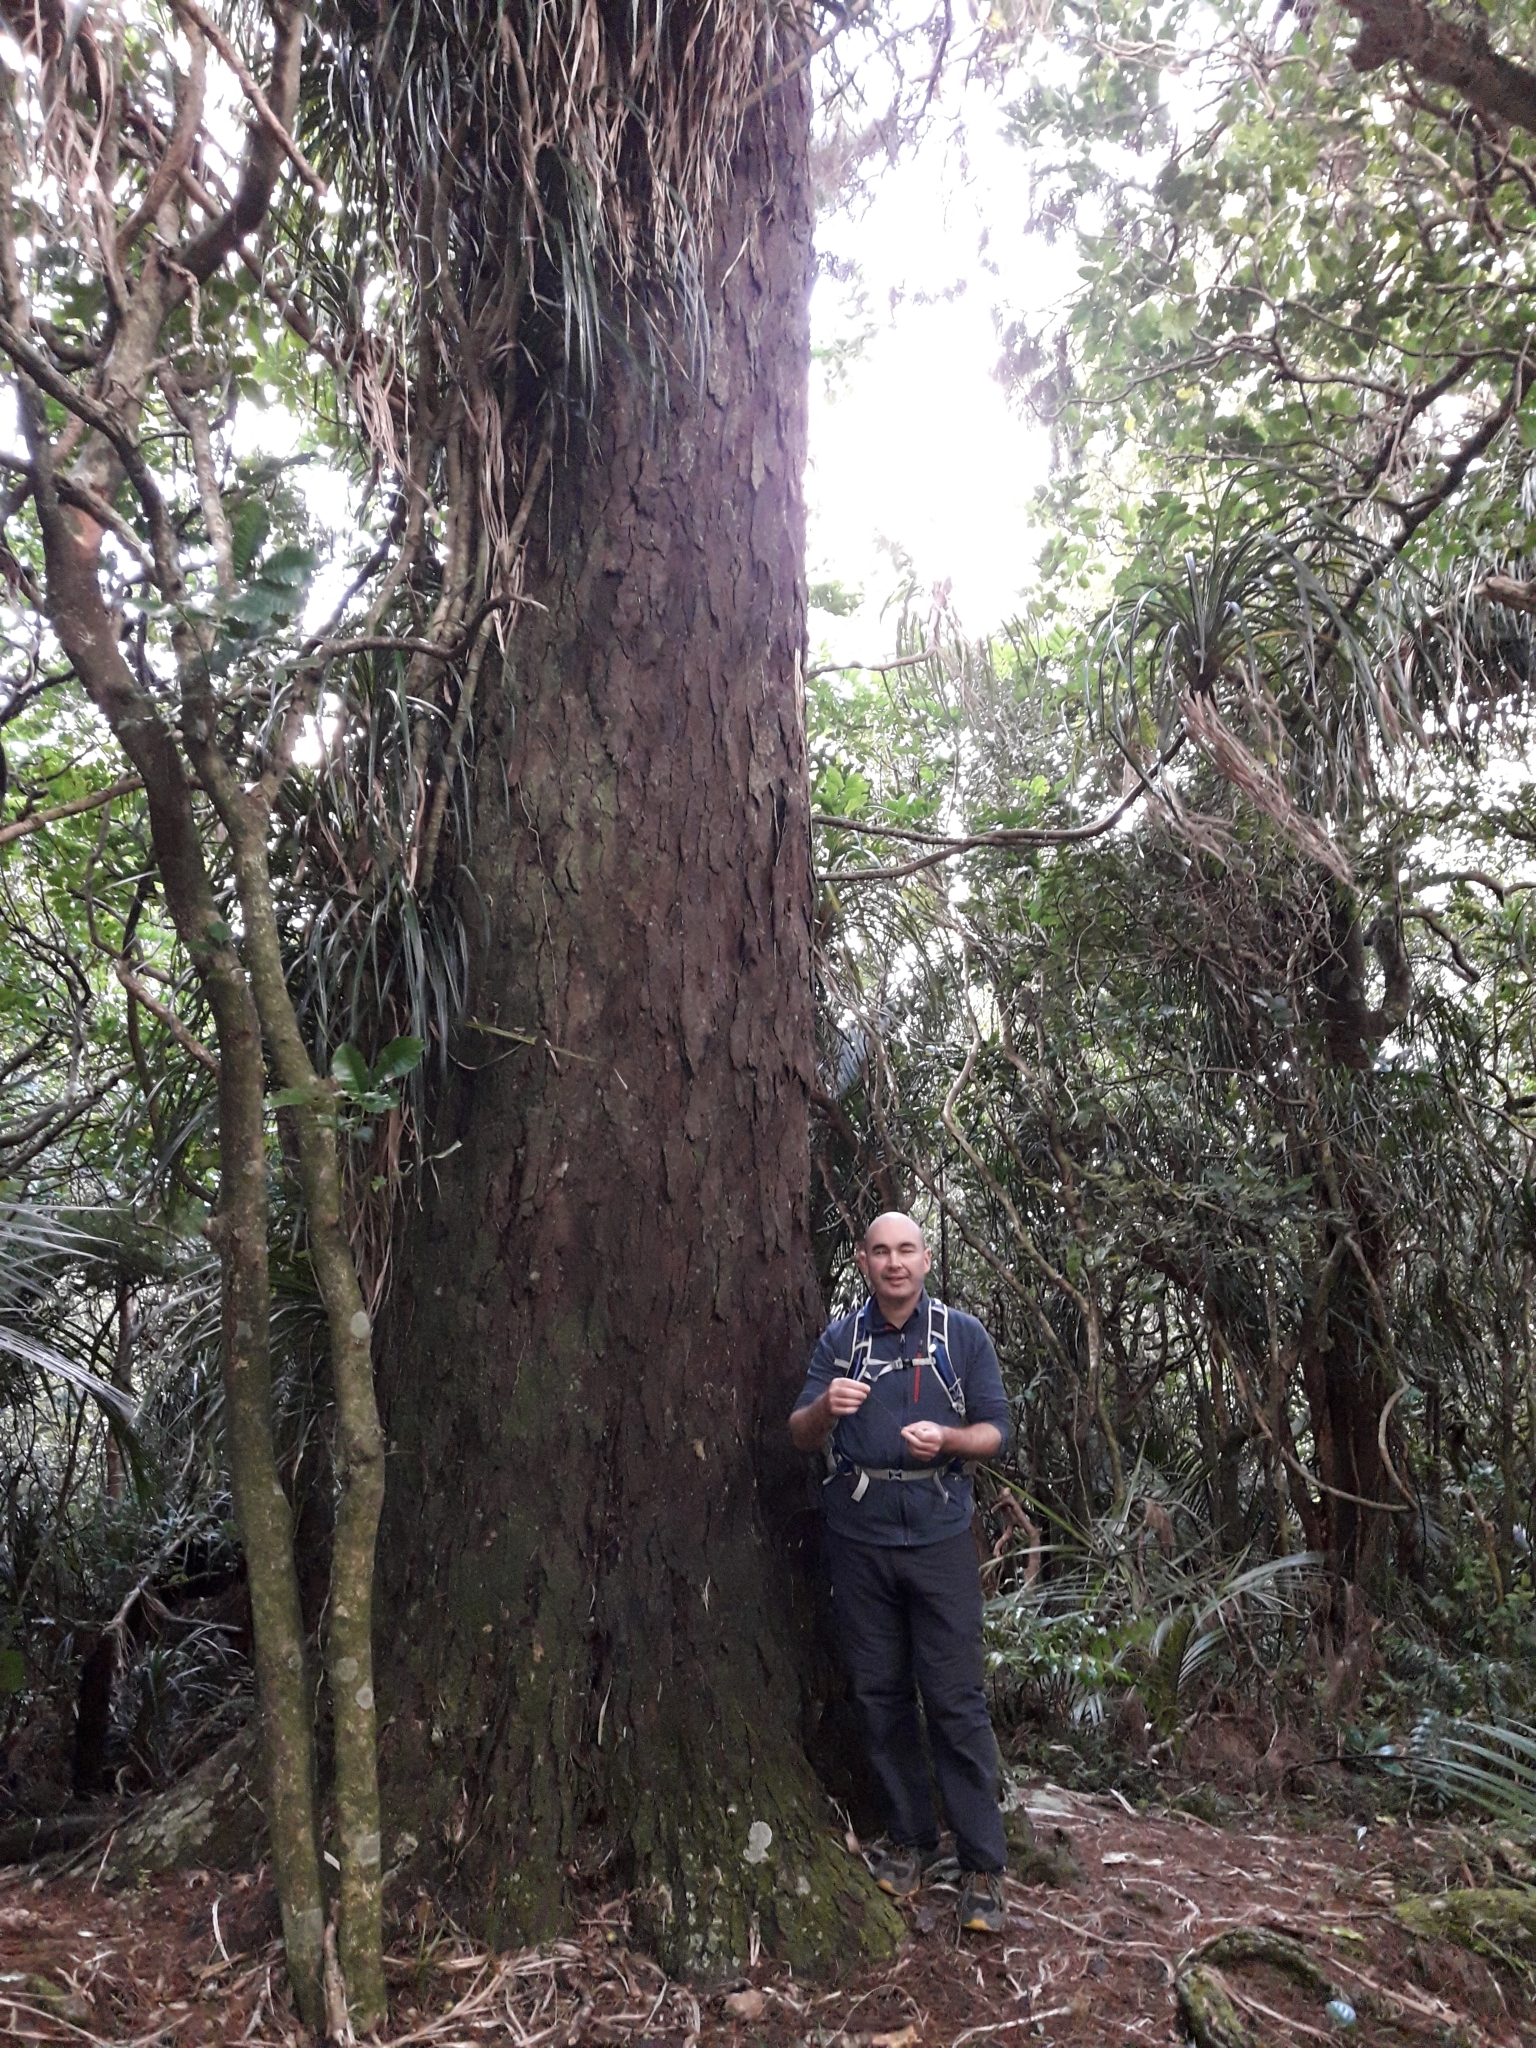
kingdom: Plantae
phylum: Tracheophyta
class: Pinopsida
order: Pinales
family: Podocarpaceae
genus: Dacrydium
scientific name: Dacrydium cupressinum
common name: Red pine
